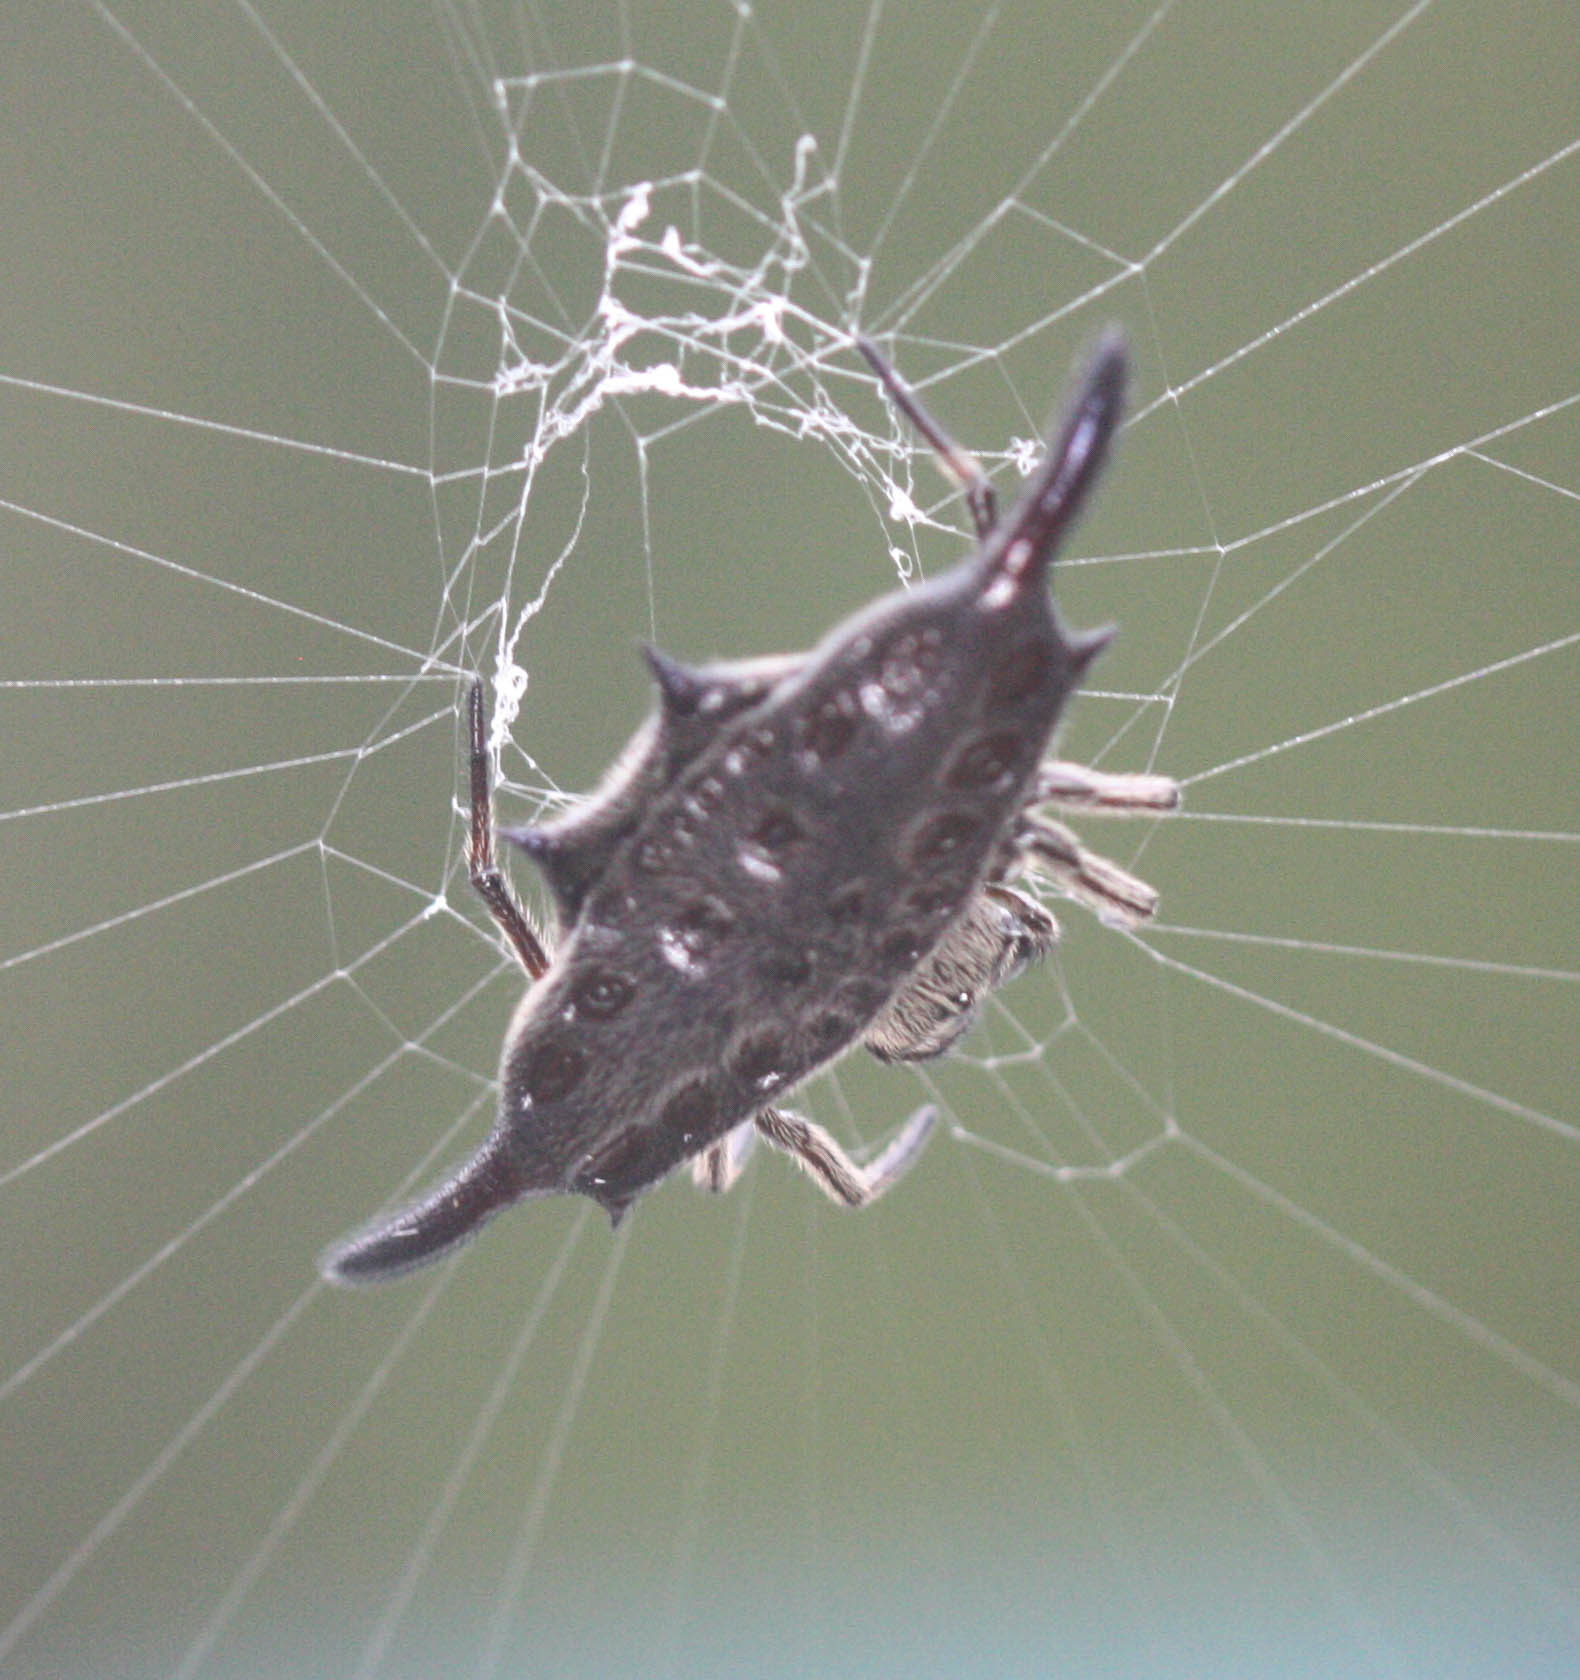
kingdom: Animalia
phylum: Arthropoda
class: Arachnida
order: Araneae
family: Araneidae
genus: Gasteracantha
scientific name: Gasteracantha diardi
